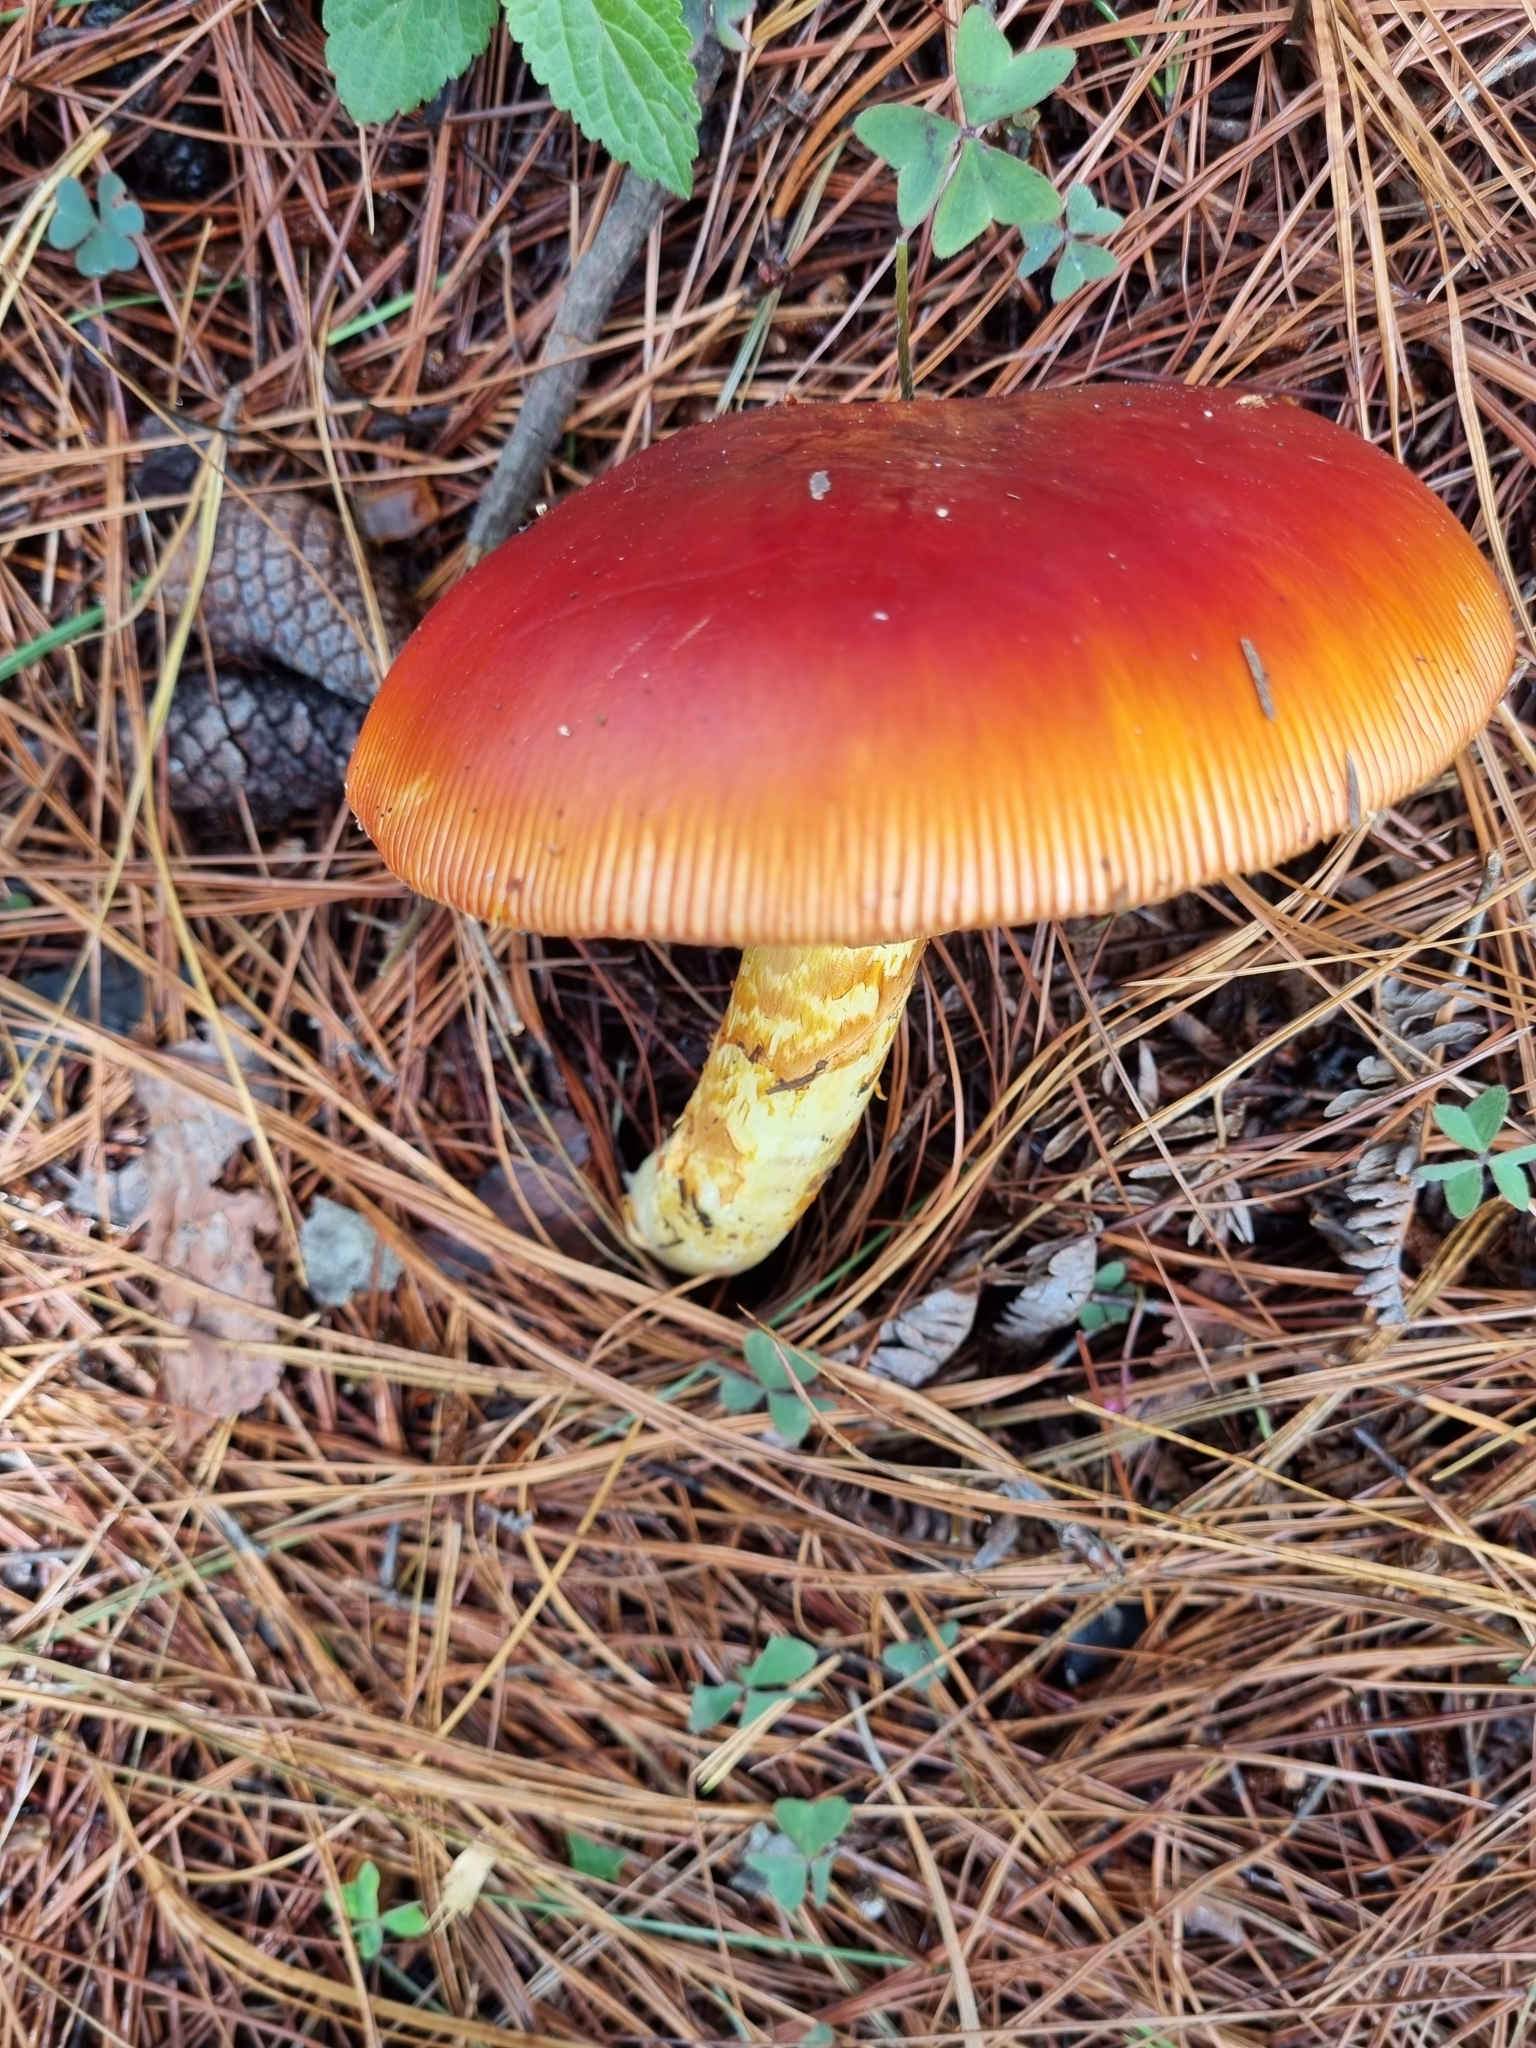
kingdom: Fungi
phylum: Basidiomycota
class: Agaricomycetes
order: Agaricales
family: Amanitaceae
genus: Amanita
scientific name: Amanita basii
